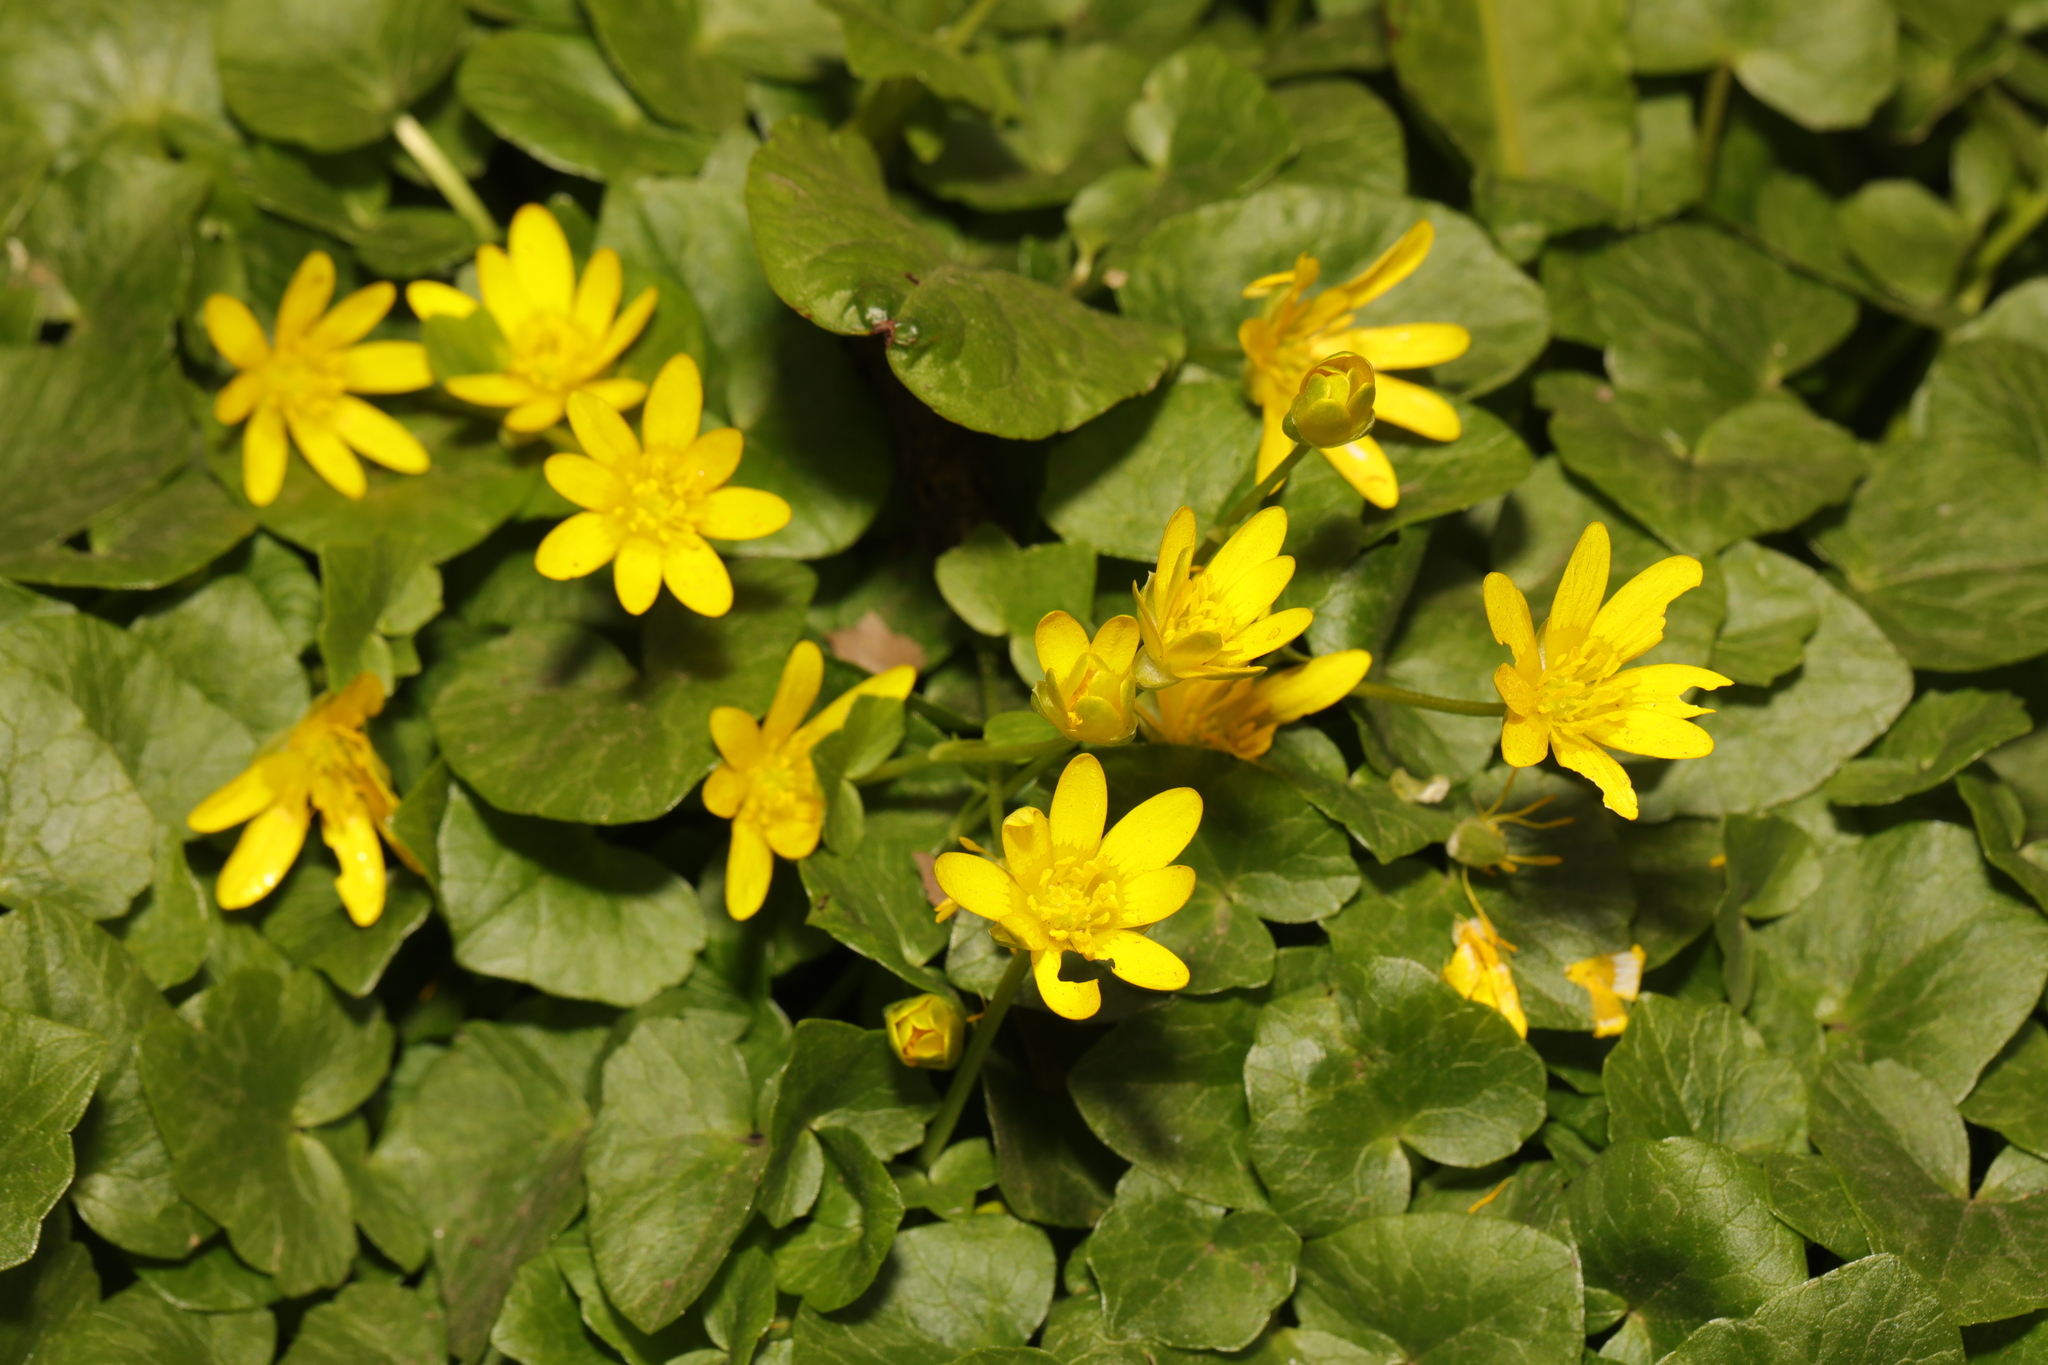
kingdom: Plantae
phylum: Tracheophyta
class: Magnoliopsida
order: Ranunculales
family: Ranunculaceae
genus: Ficaria
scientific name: Ficaria verna
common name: Lesser celandine
